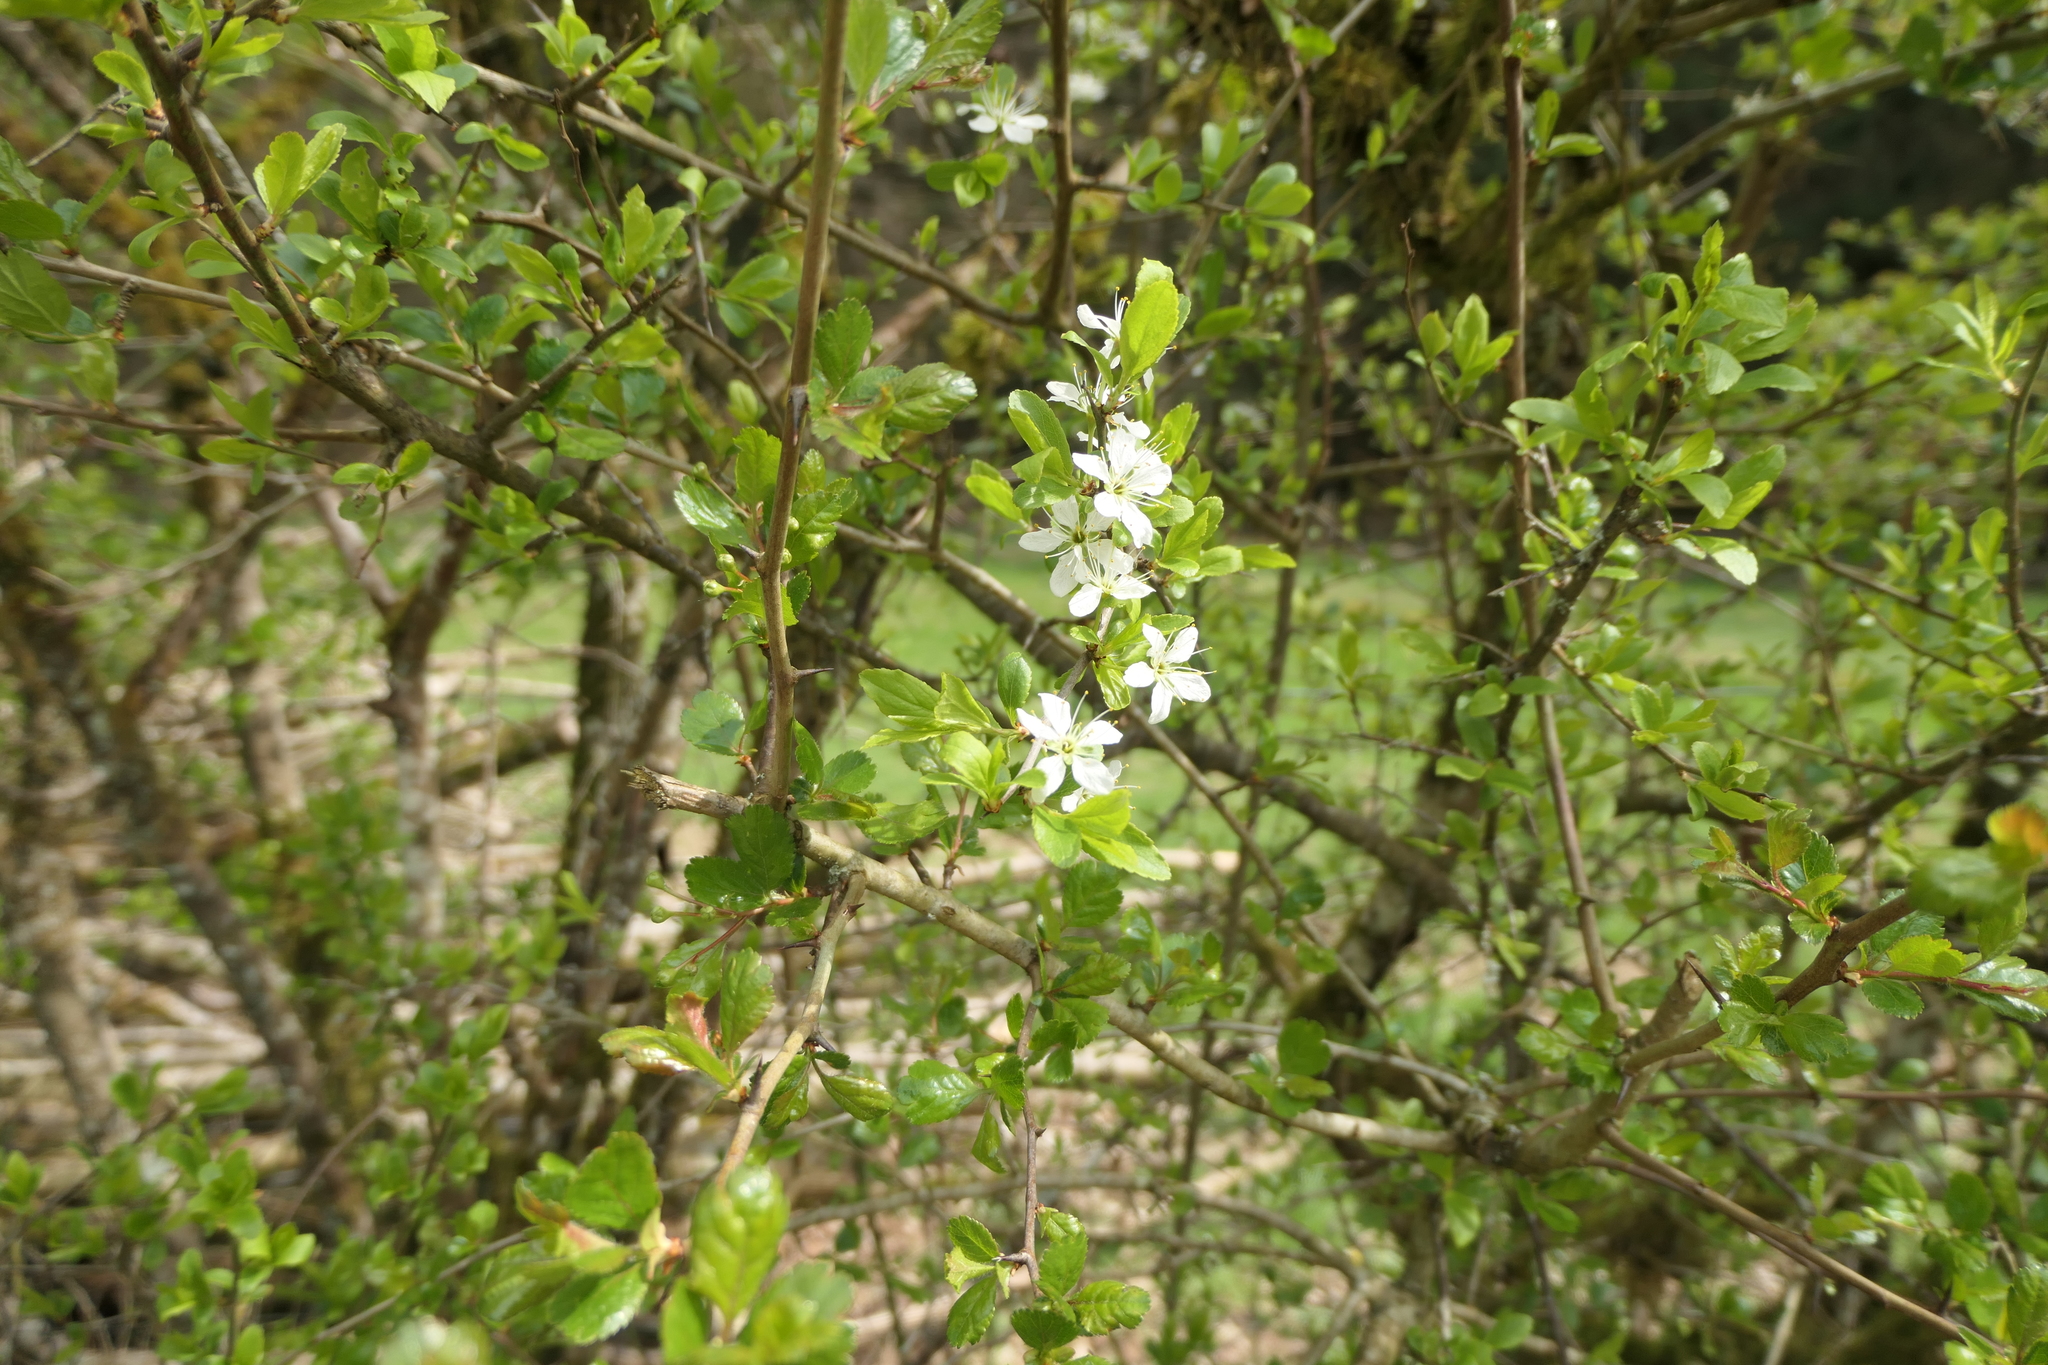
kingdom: Plantae
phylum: Tracheophyta
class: Magnoliopsida
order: Rosales
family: Rosaceae
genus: Prunus
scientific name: Prunus spinosa
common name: Blackthorn
